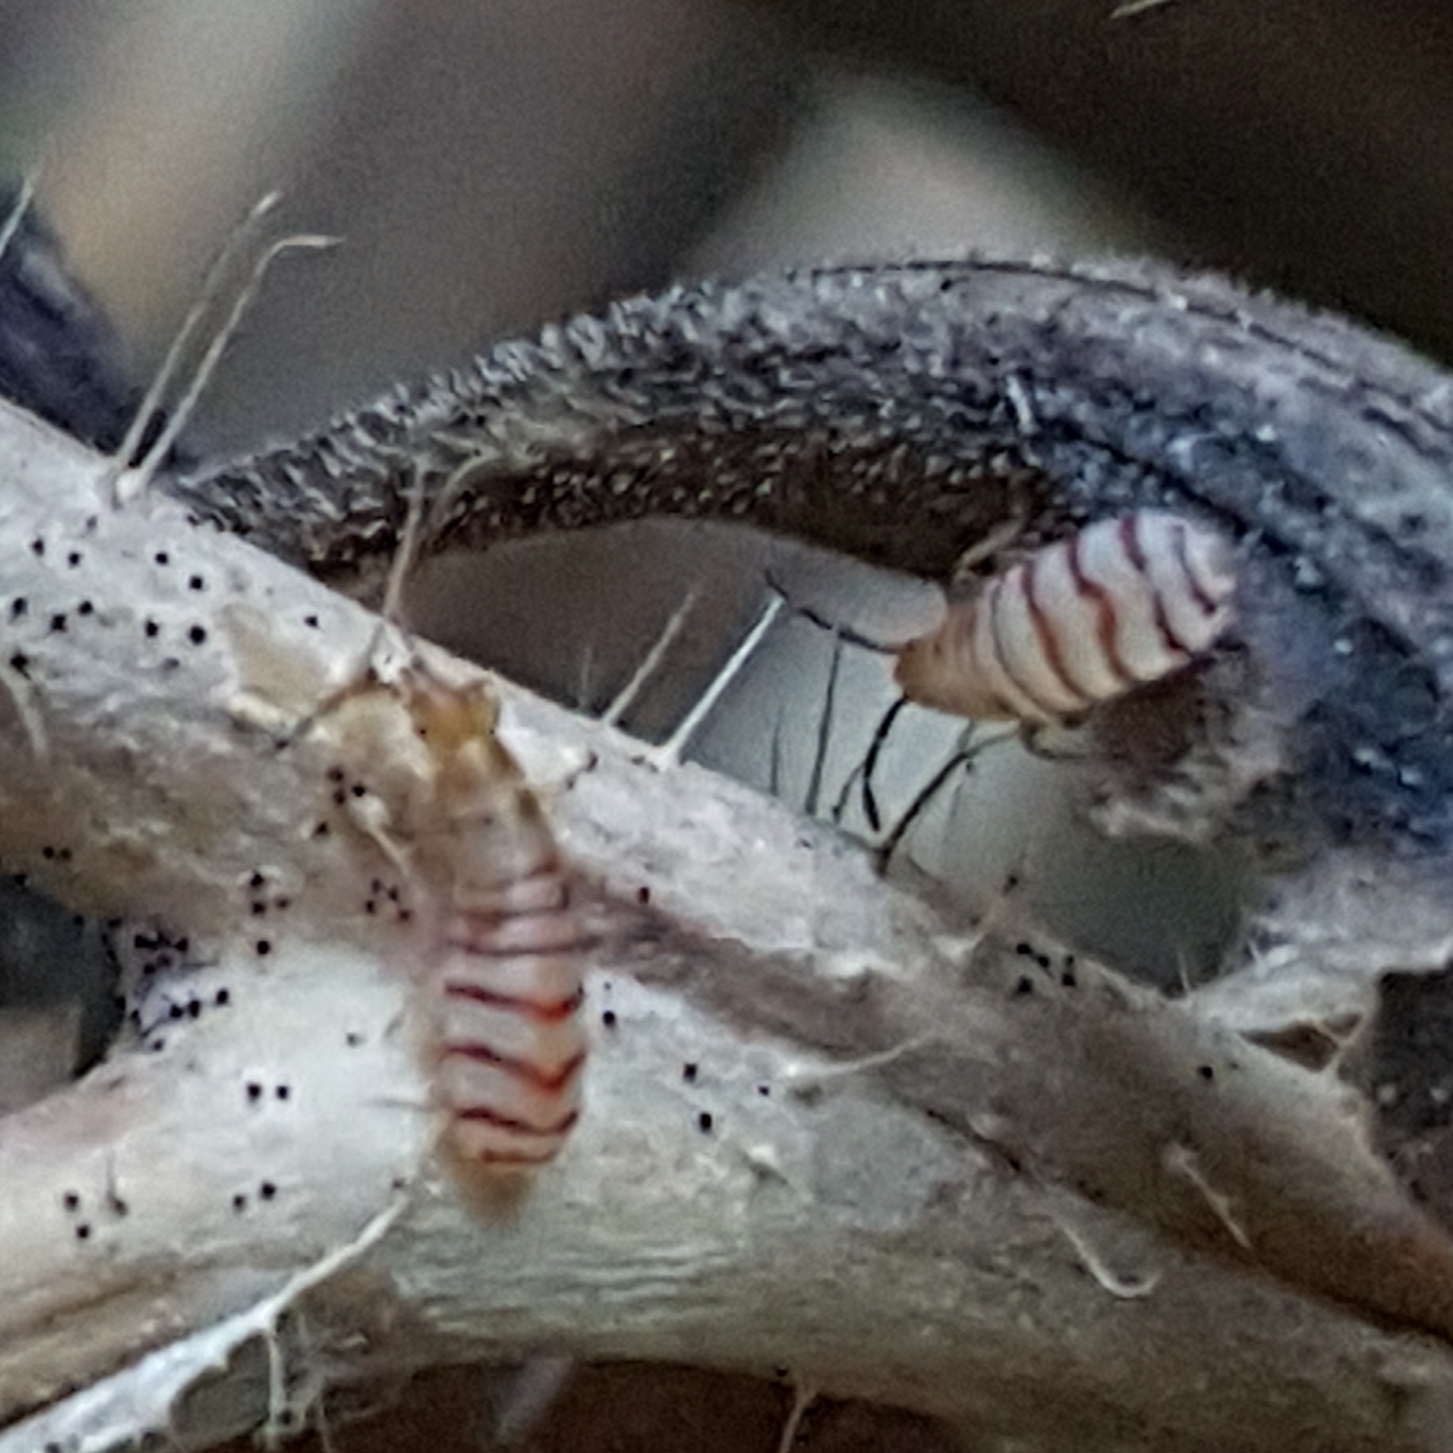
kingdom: Animalia
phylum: Arthropoda
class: Insecta
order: Hemiptera
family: Oxycarenidae
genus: Brachyplax
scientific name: Brachyplax tenuis
